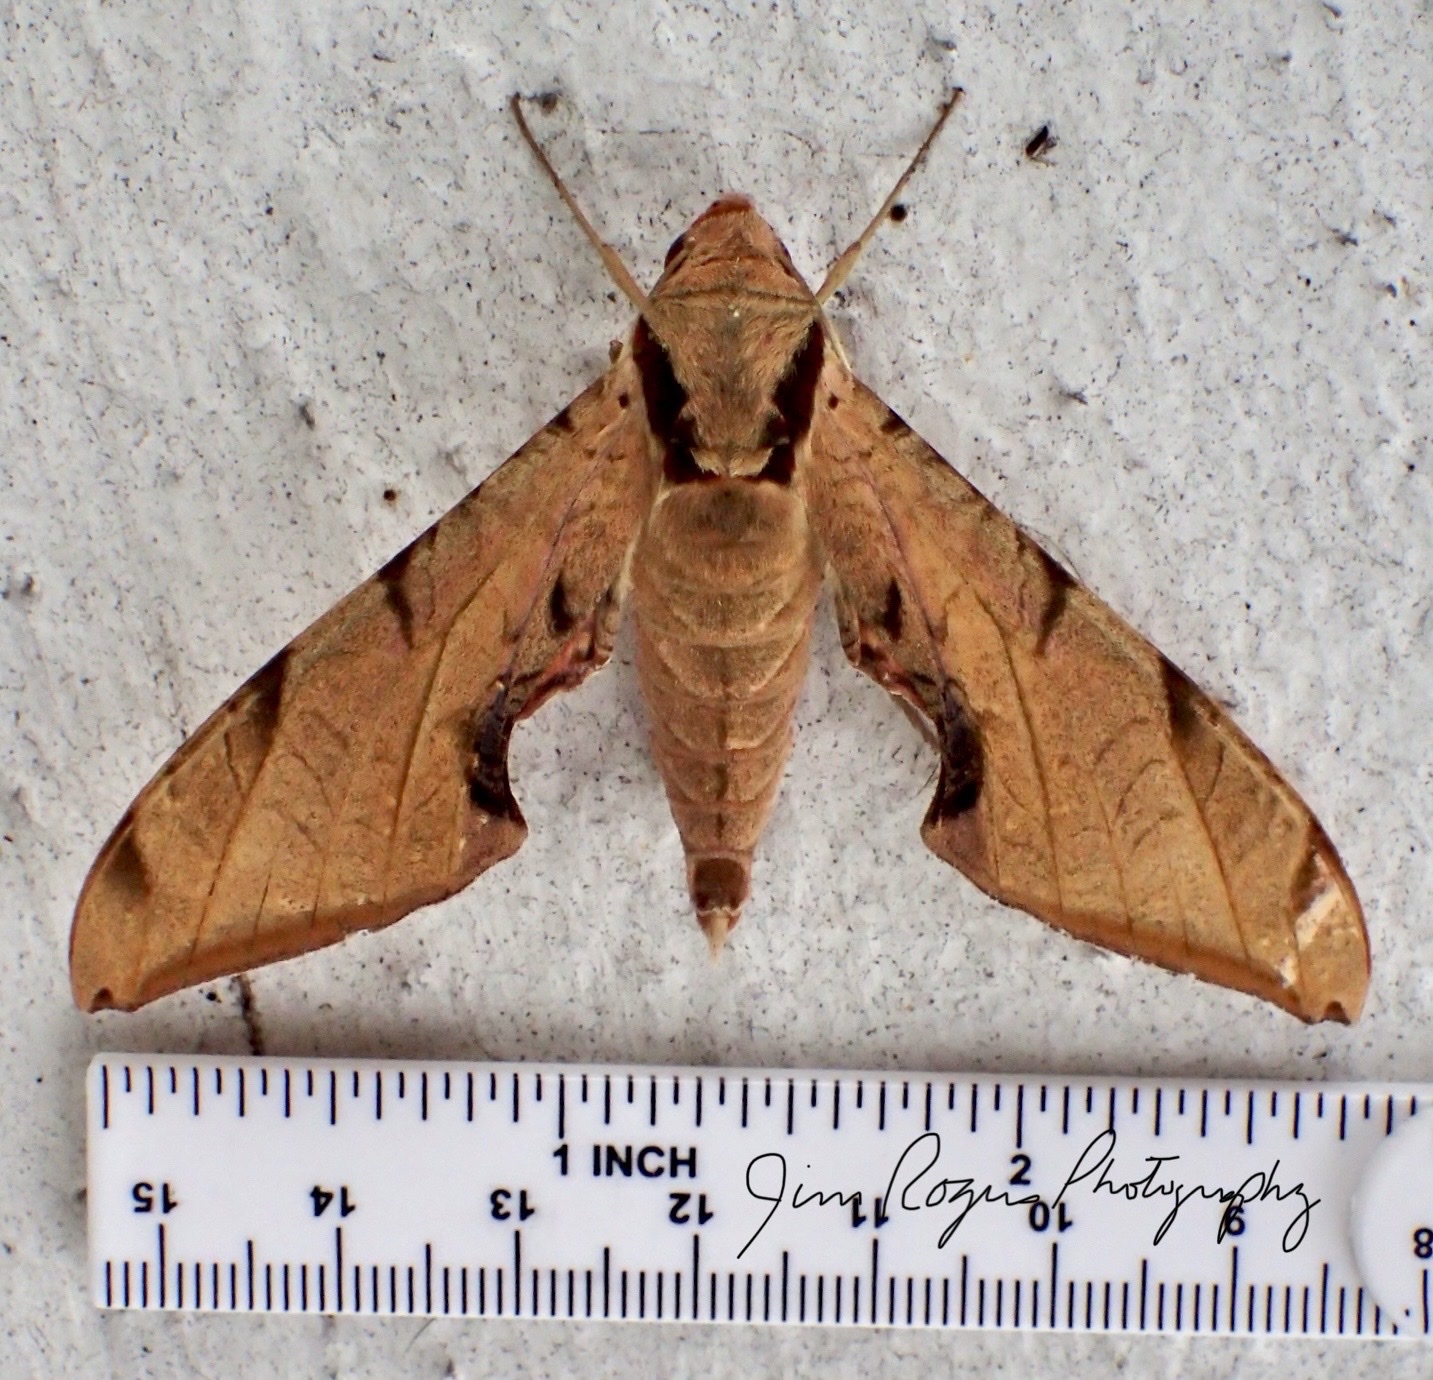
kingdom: Animalia
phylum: Arthropoda
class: Insecta
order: Lepidoptera
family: Sphingidae
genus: Protambulyx
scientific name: Protambulyx strigilis
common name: Streaked sphinx
